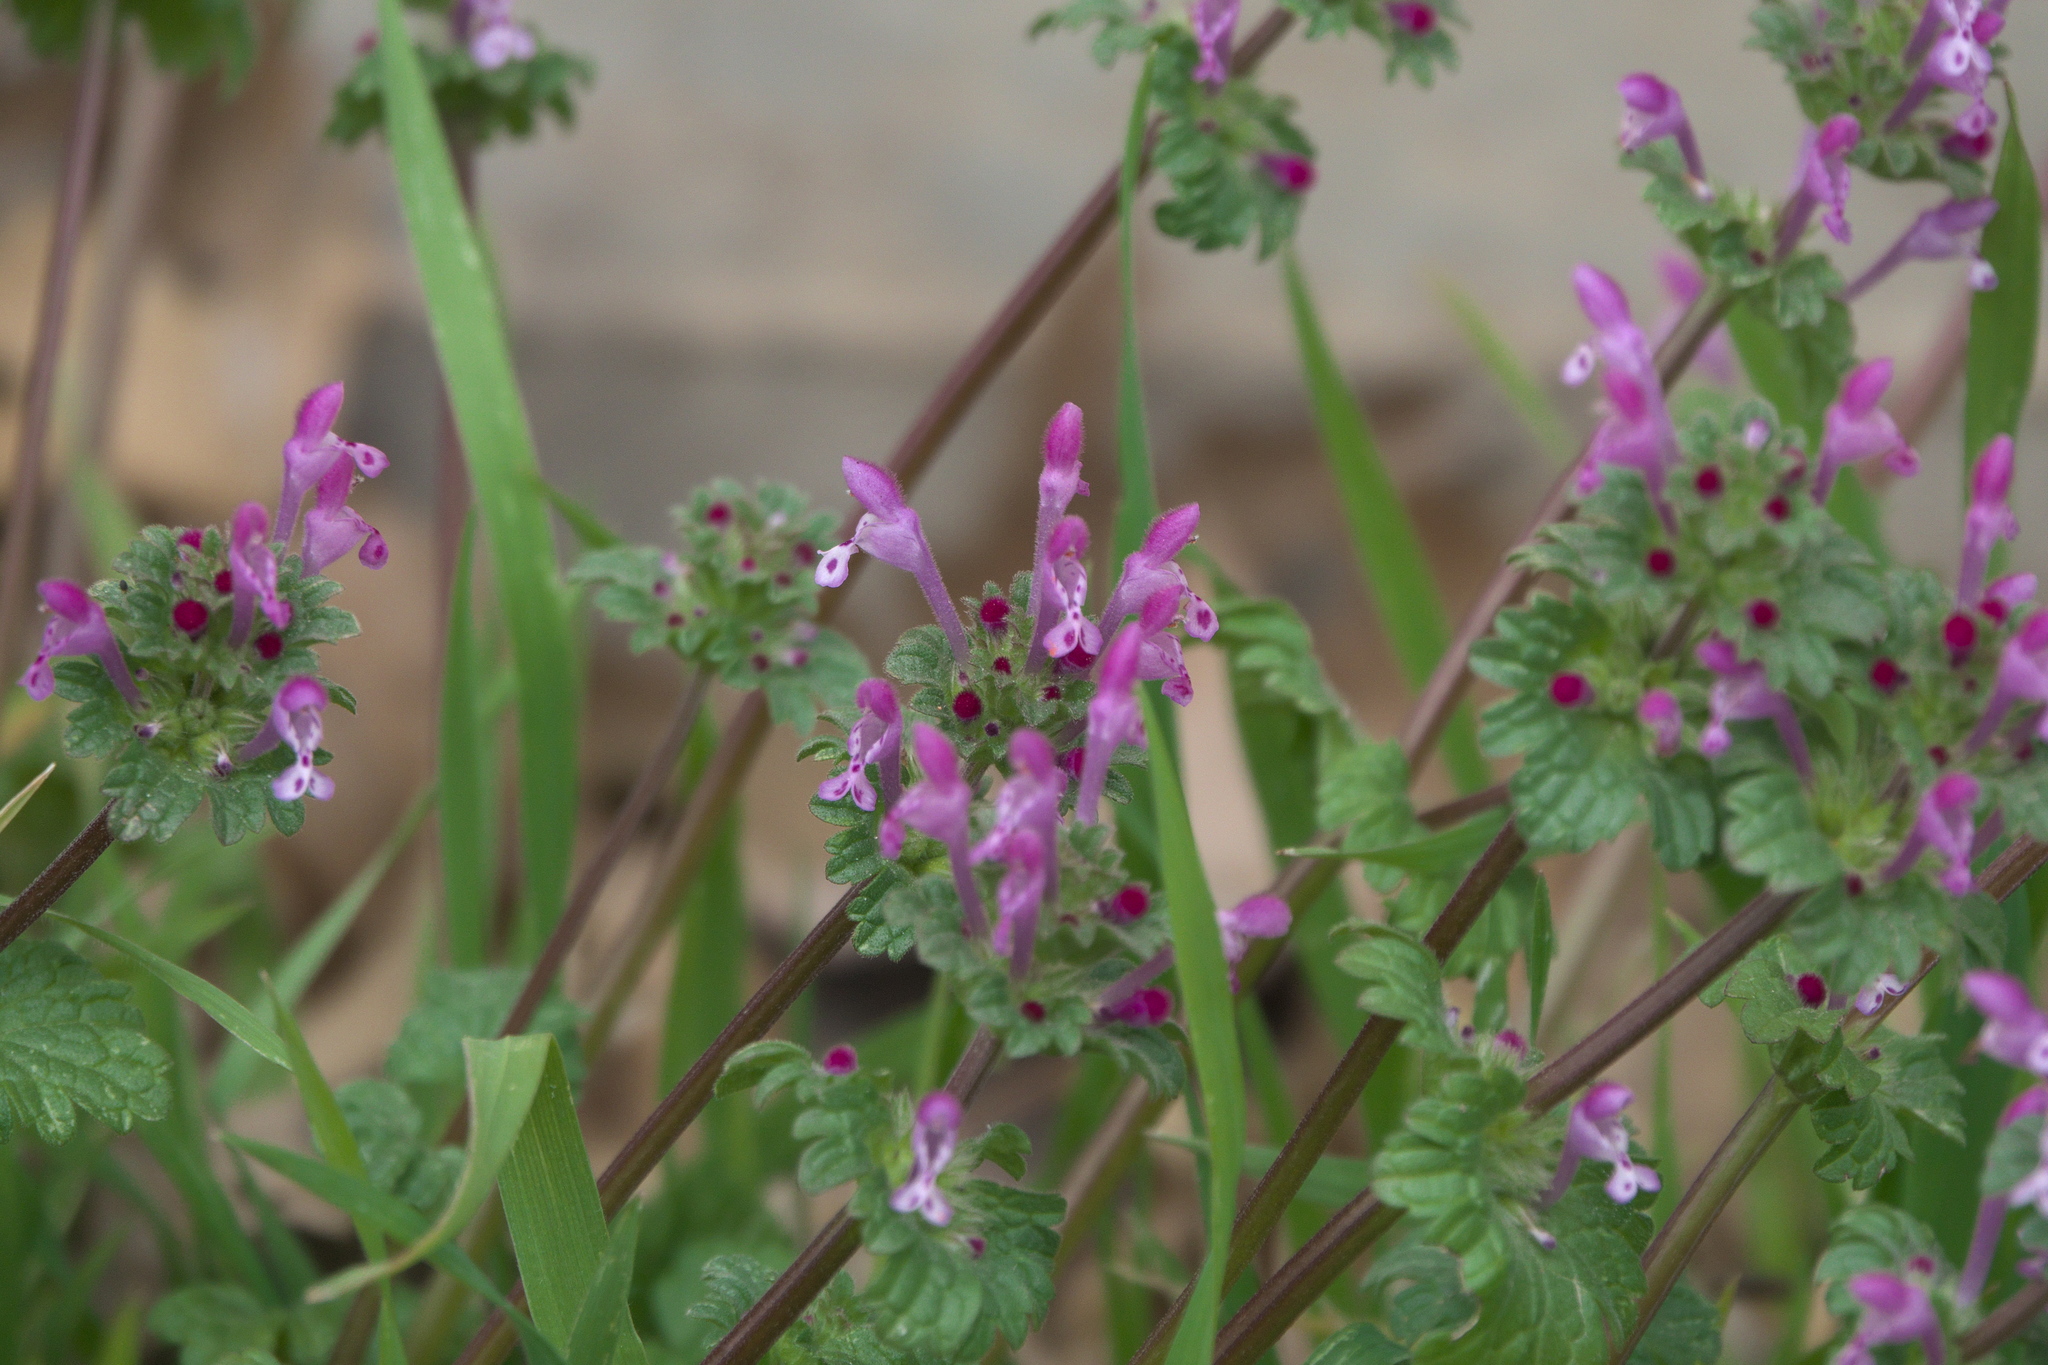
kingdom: Plantae
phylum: Tracheophyta
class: Magnoliopsida
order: Lamiales
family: Lamiaceae
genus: Lamium
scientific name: Lamium amplexicaule
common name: Henbit dead-nettle
